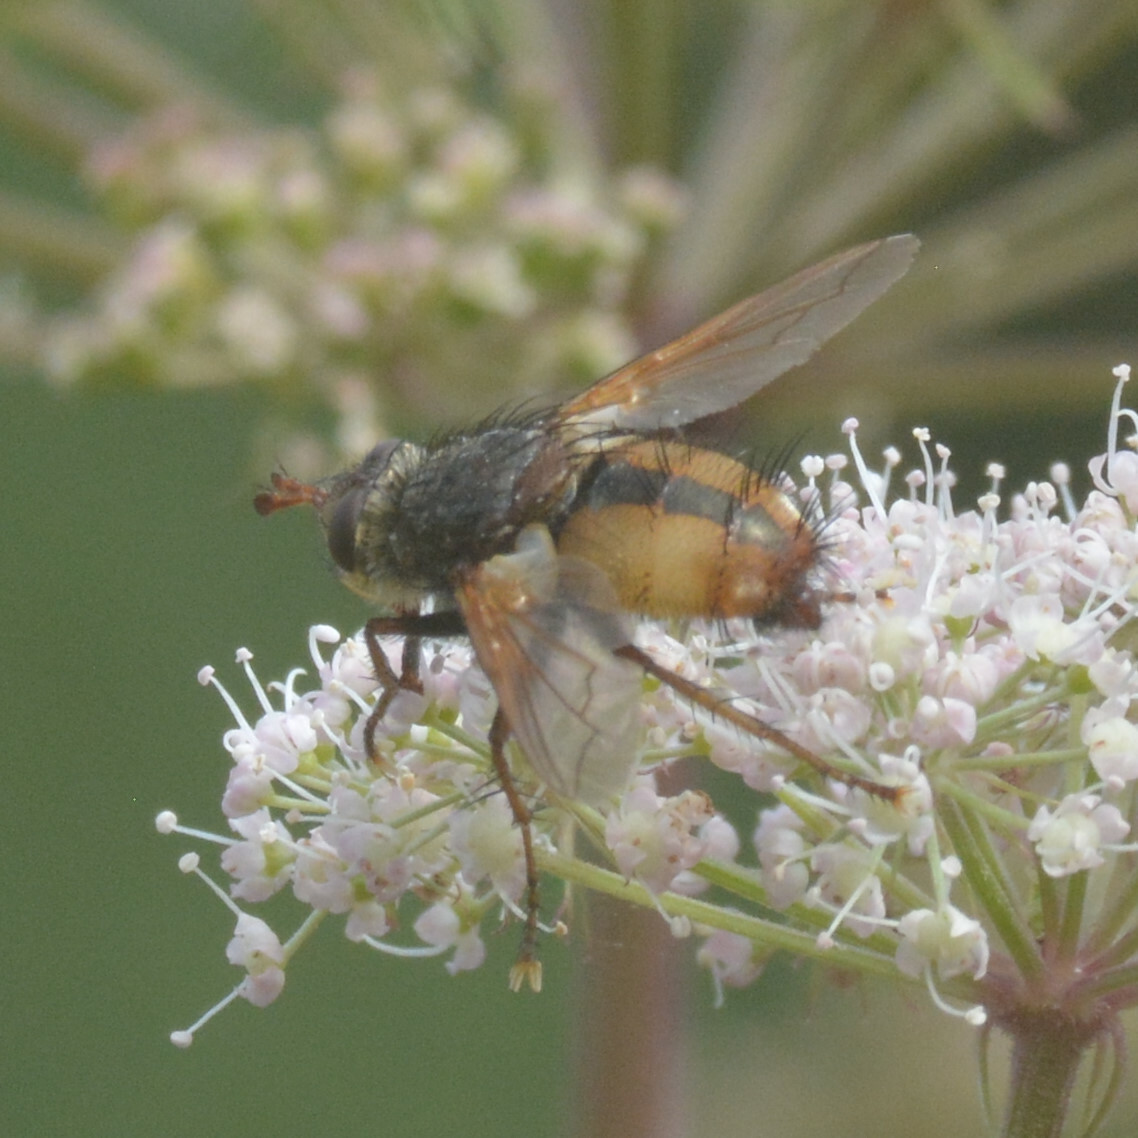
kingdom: Animalia
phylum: Arthropoda
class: Insecta
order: Diptera
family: Tachinidae
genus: Tachina
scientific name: Tachina fera
